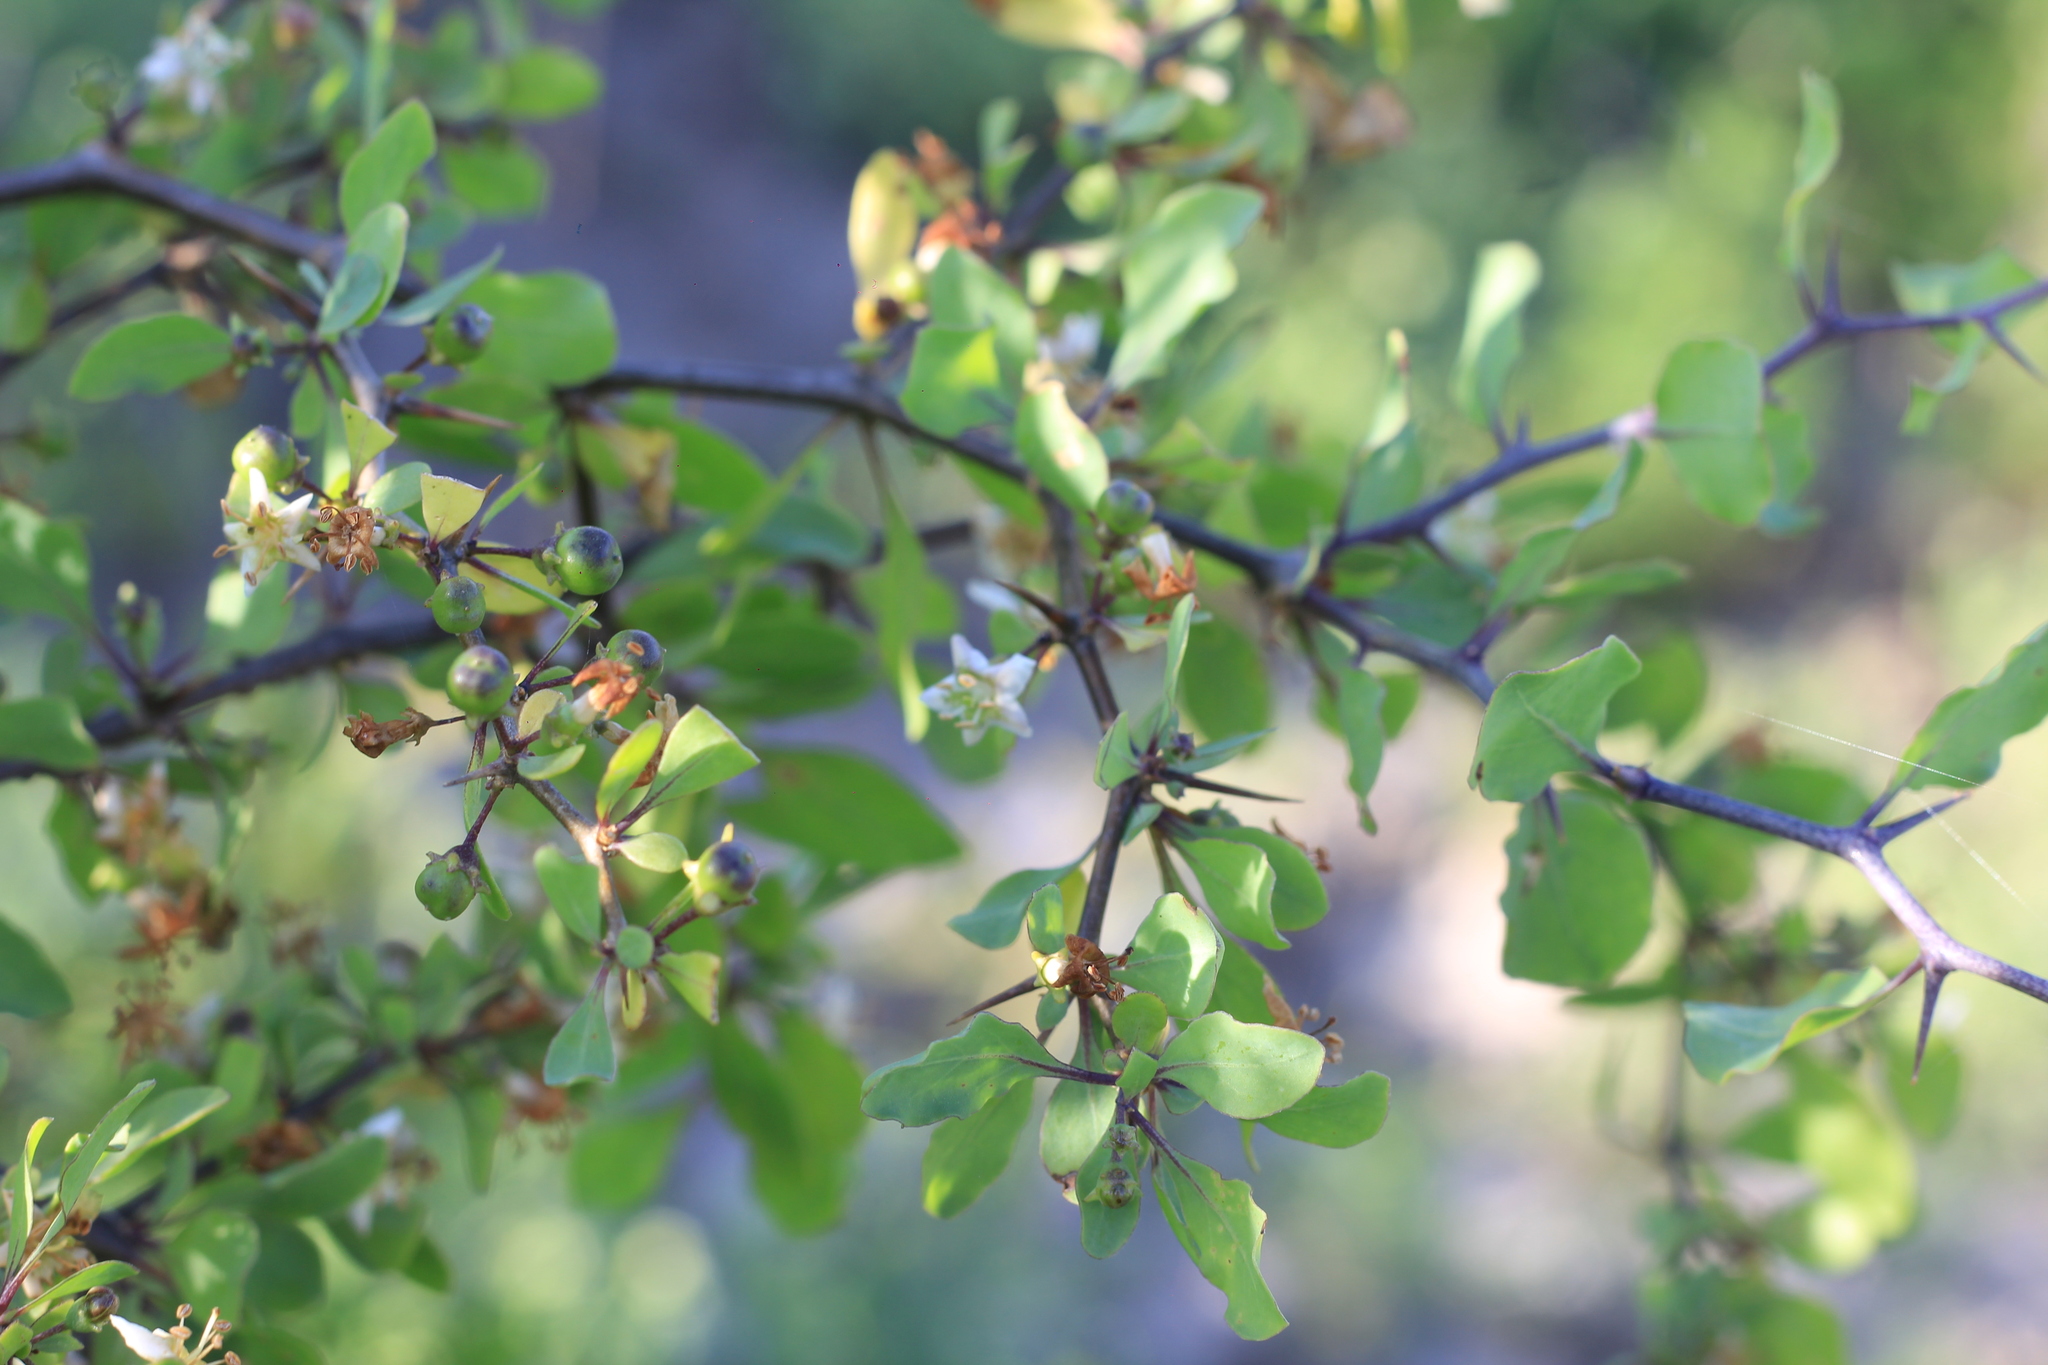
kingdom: Plantae
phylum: Tracheophyta
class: Magnoliopsida
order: Solanales
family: Solanaceae
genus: Lycium
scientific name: Lycium boerhaaviifolium
